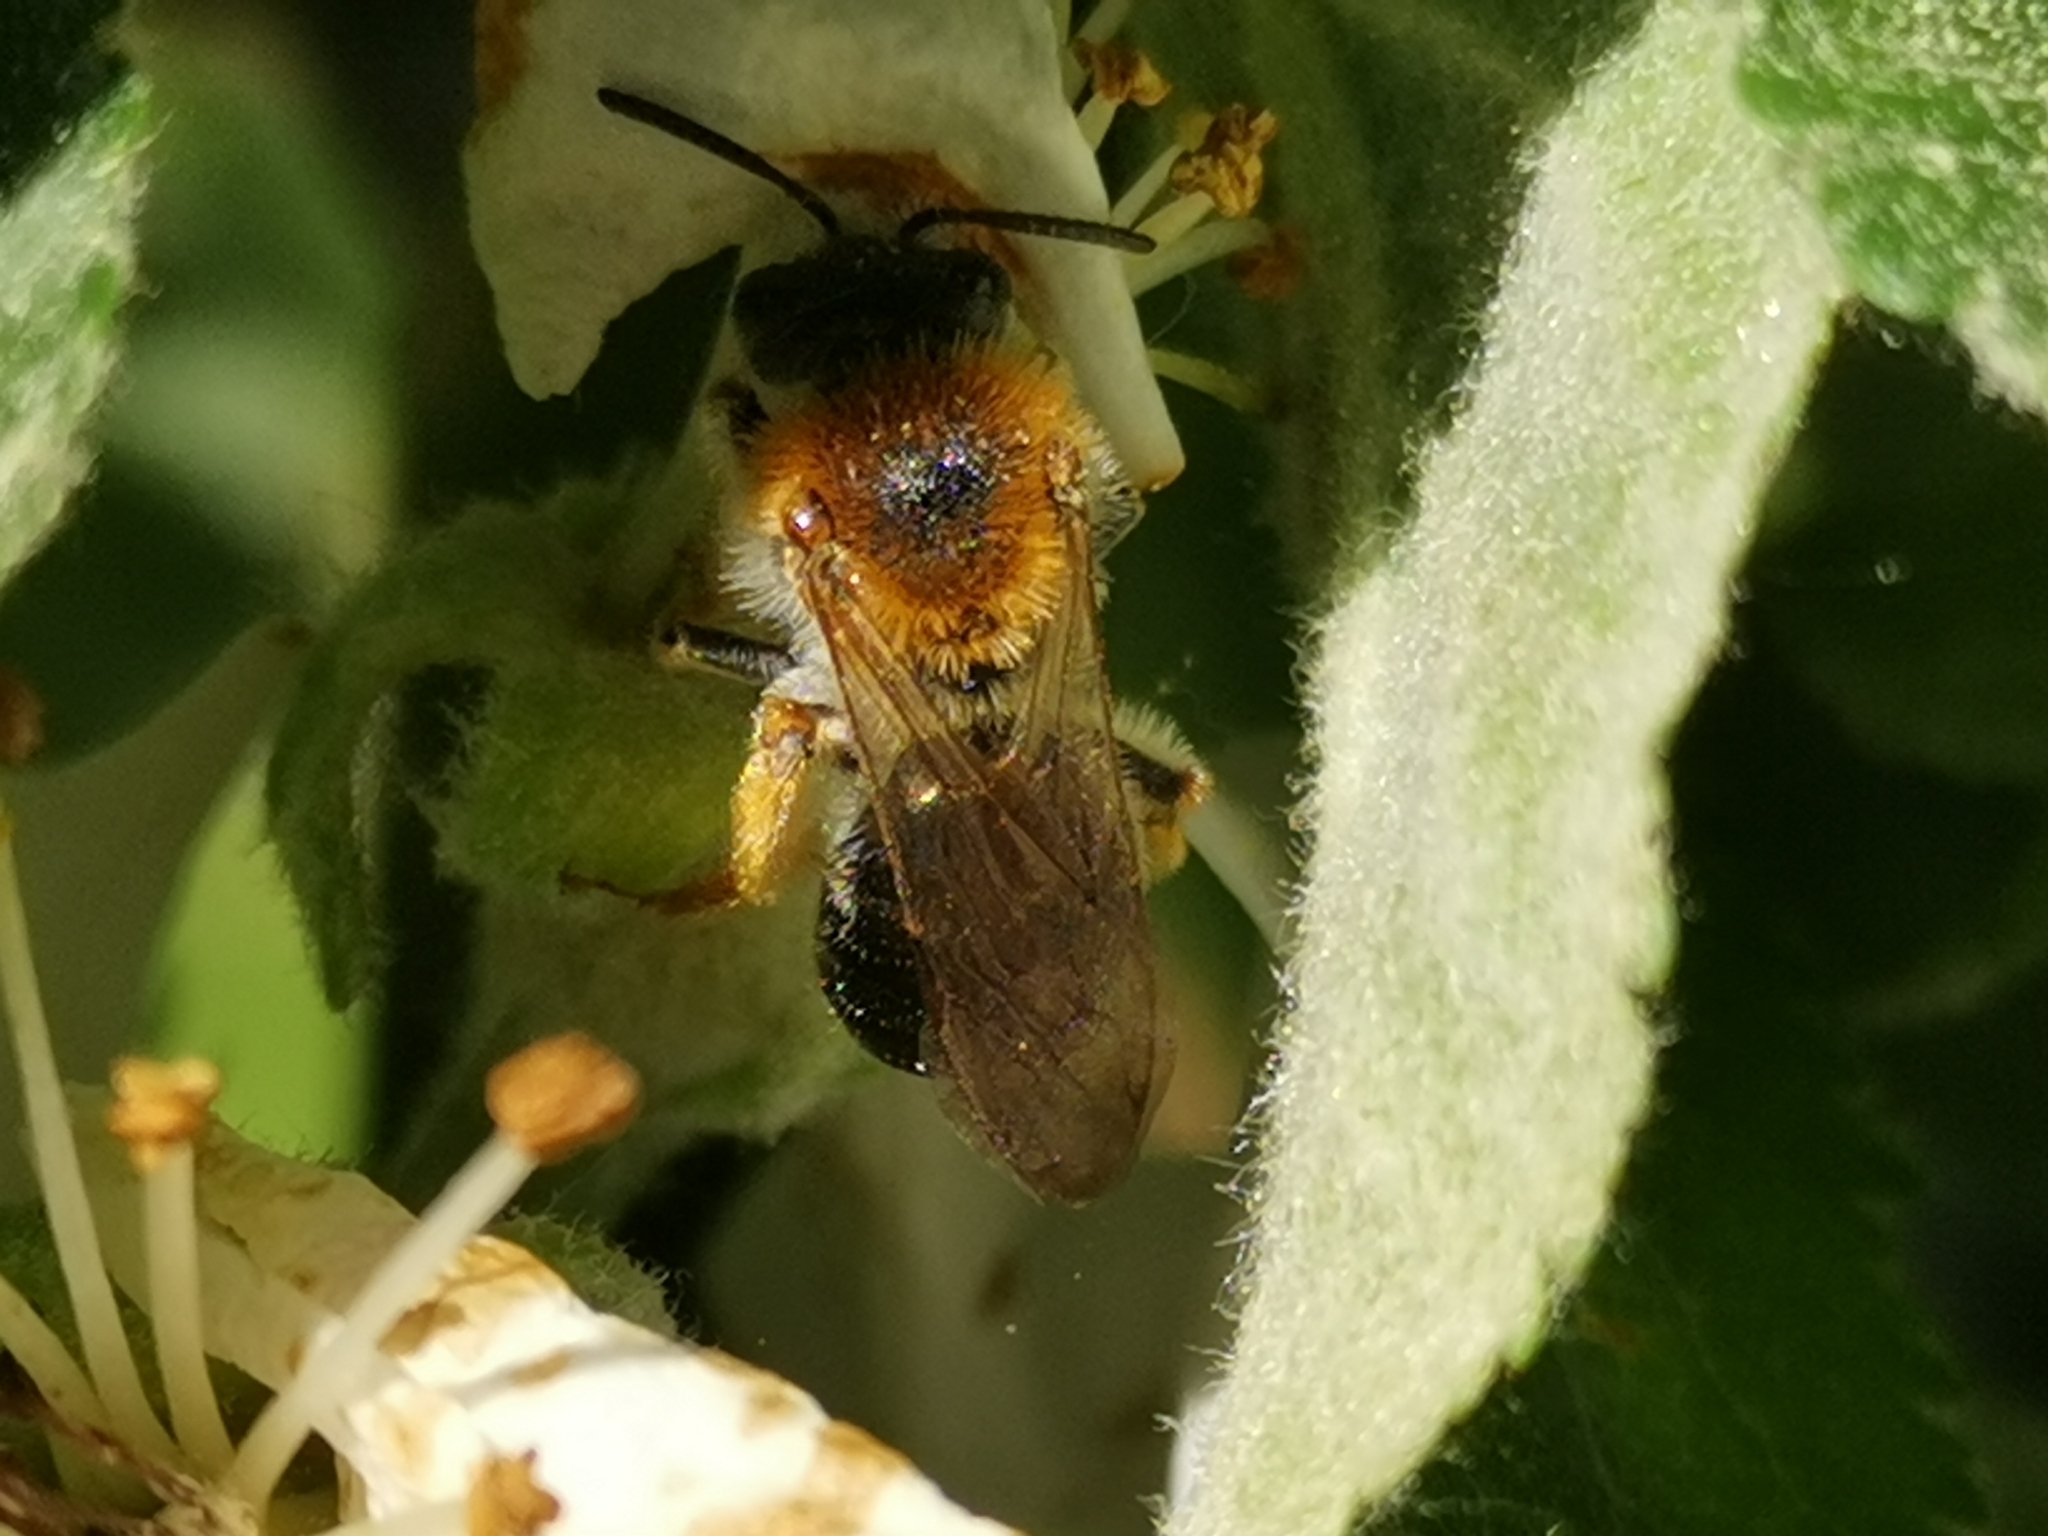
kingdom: Animalia
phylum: Arthropoda
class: Insecta
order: Hymenoptera
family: Andrenidae
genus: Andrena
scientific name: Andrena haemorrhoa
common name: Early mining bee
